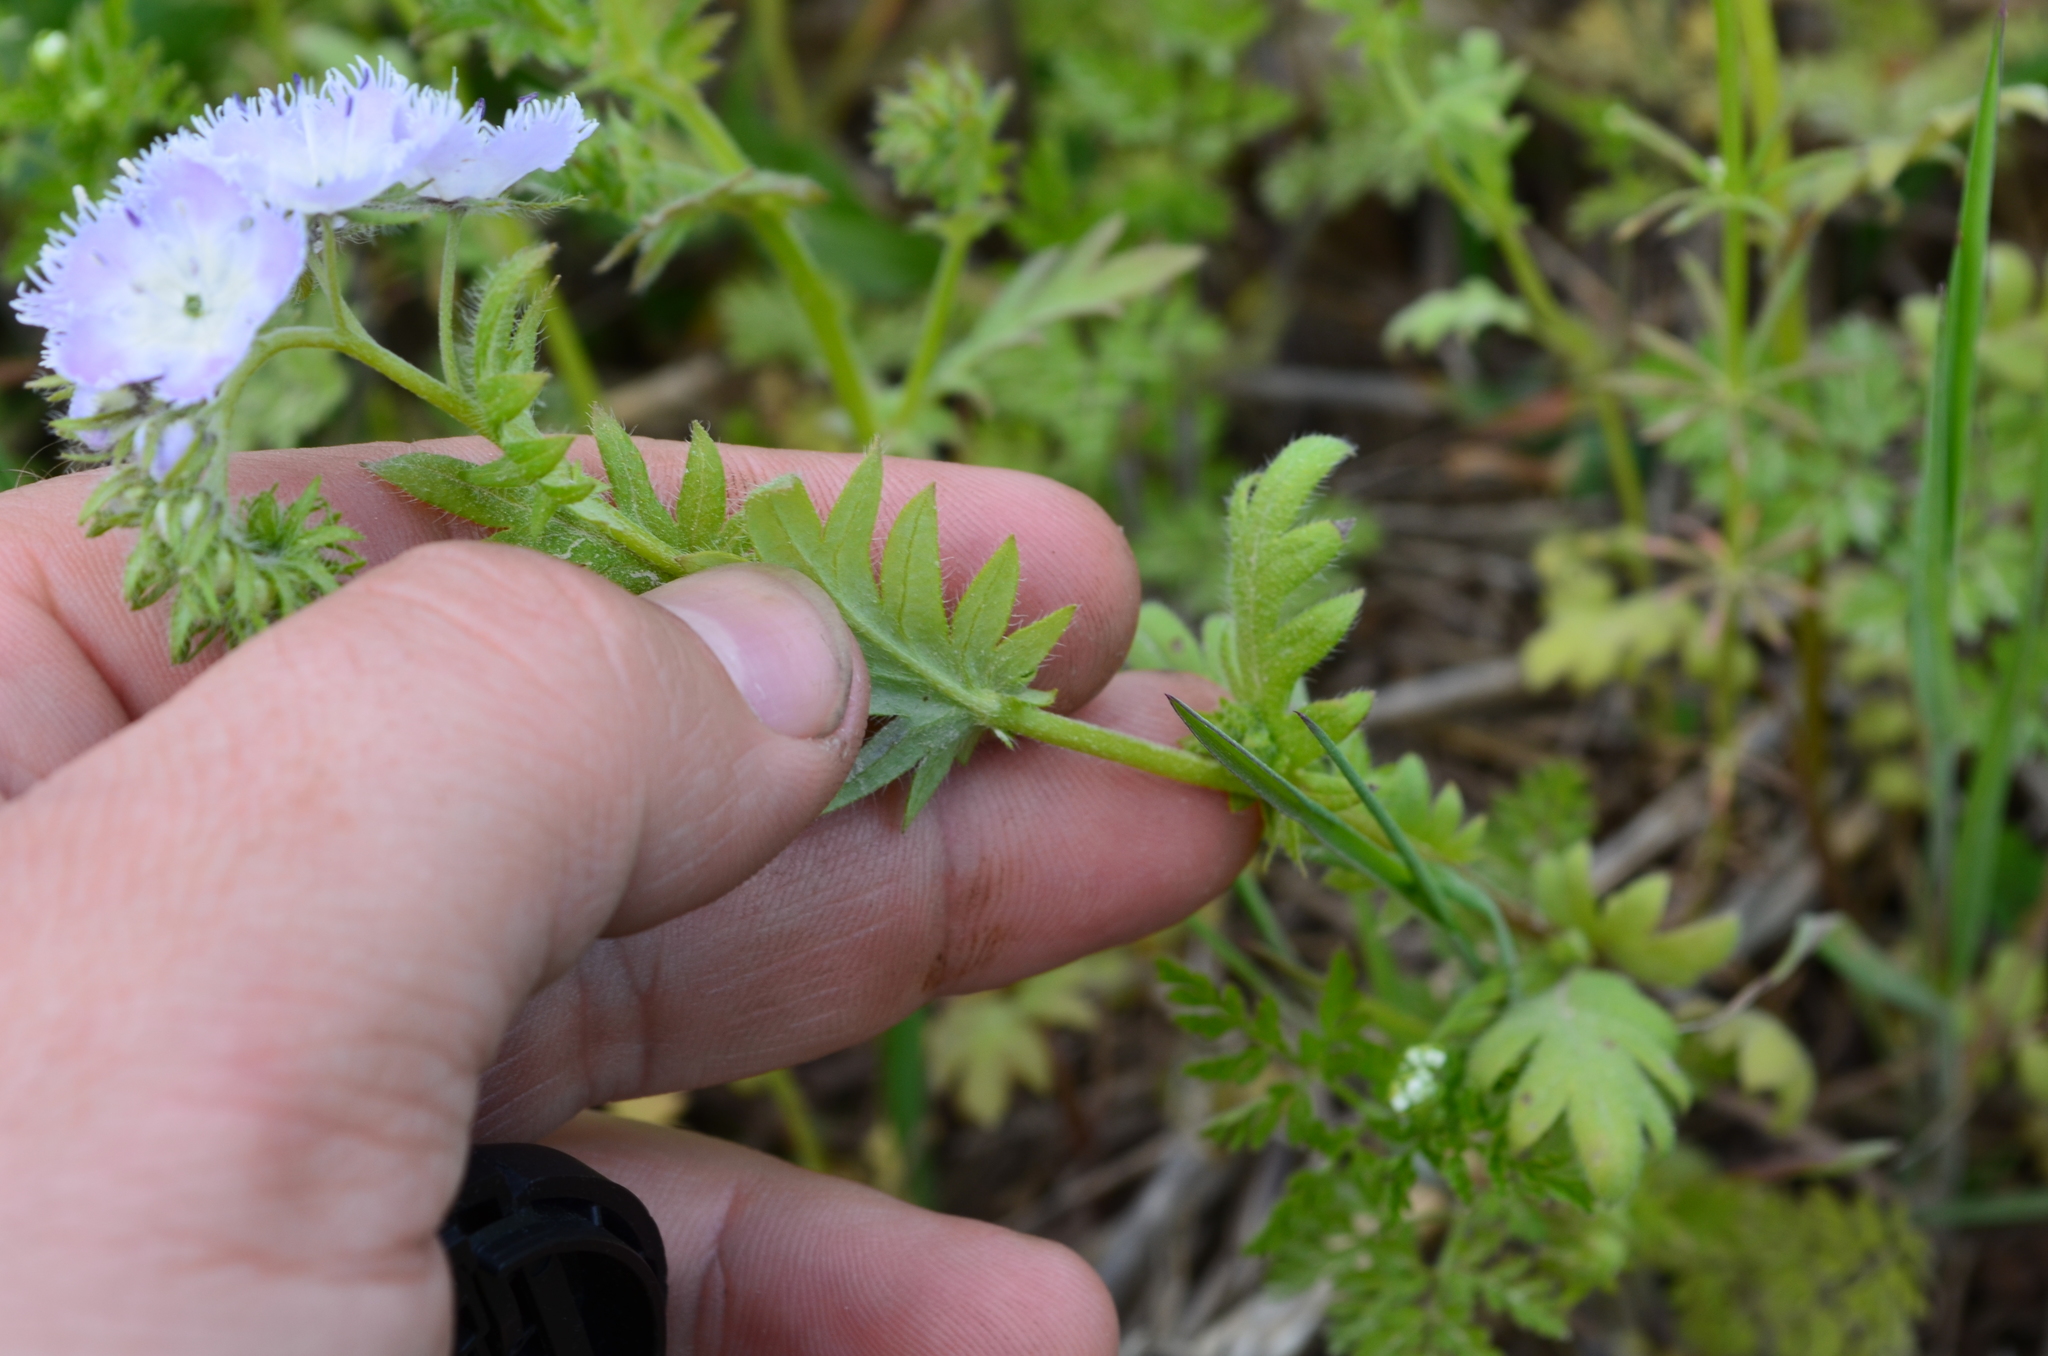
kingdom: Plantae
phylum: Tracheophyta
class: Magnoliopsida
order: Boraginales
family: Hydrophyllaceae
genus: Phacelia
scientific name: Phacelia purshii
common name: Miami-mist
